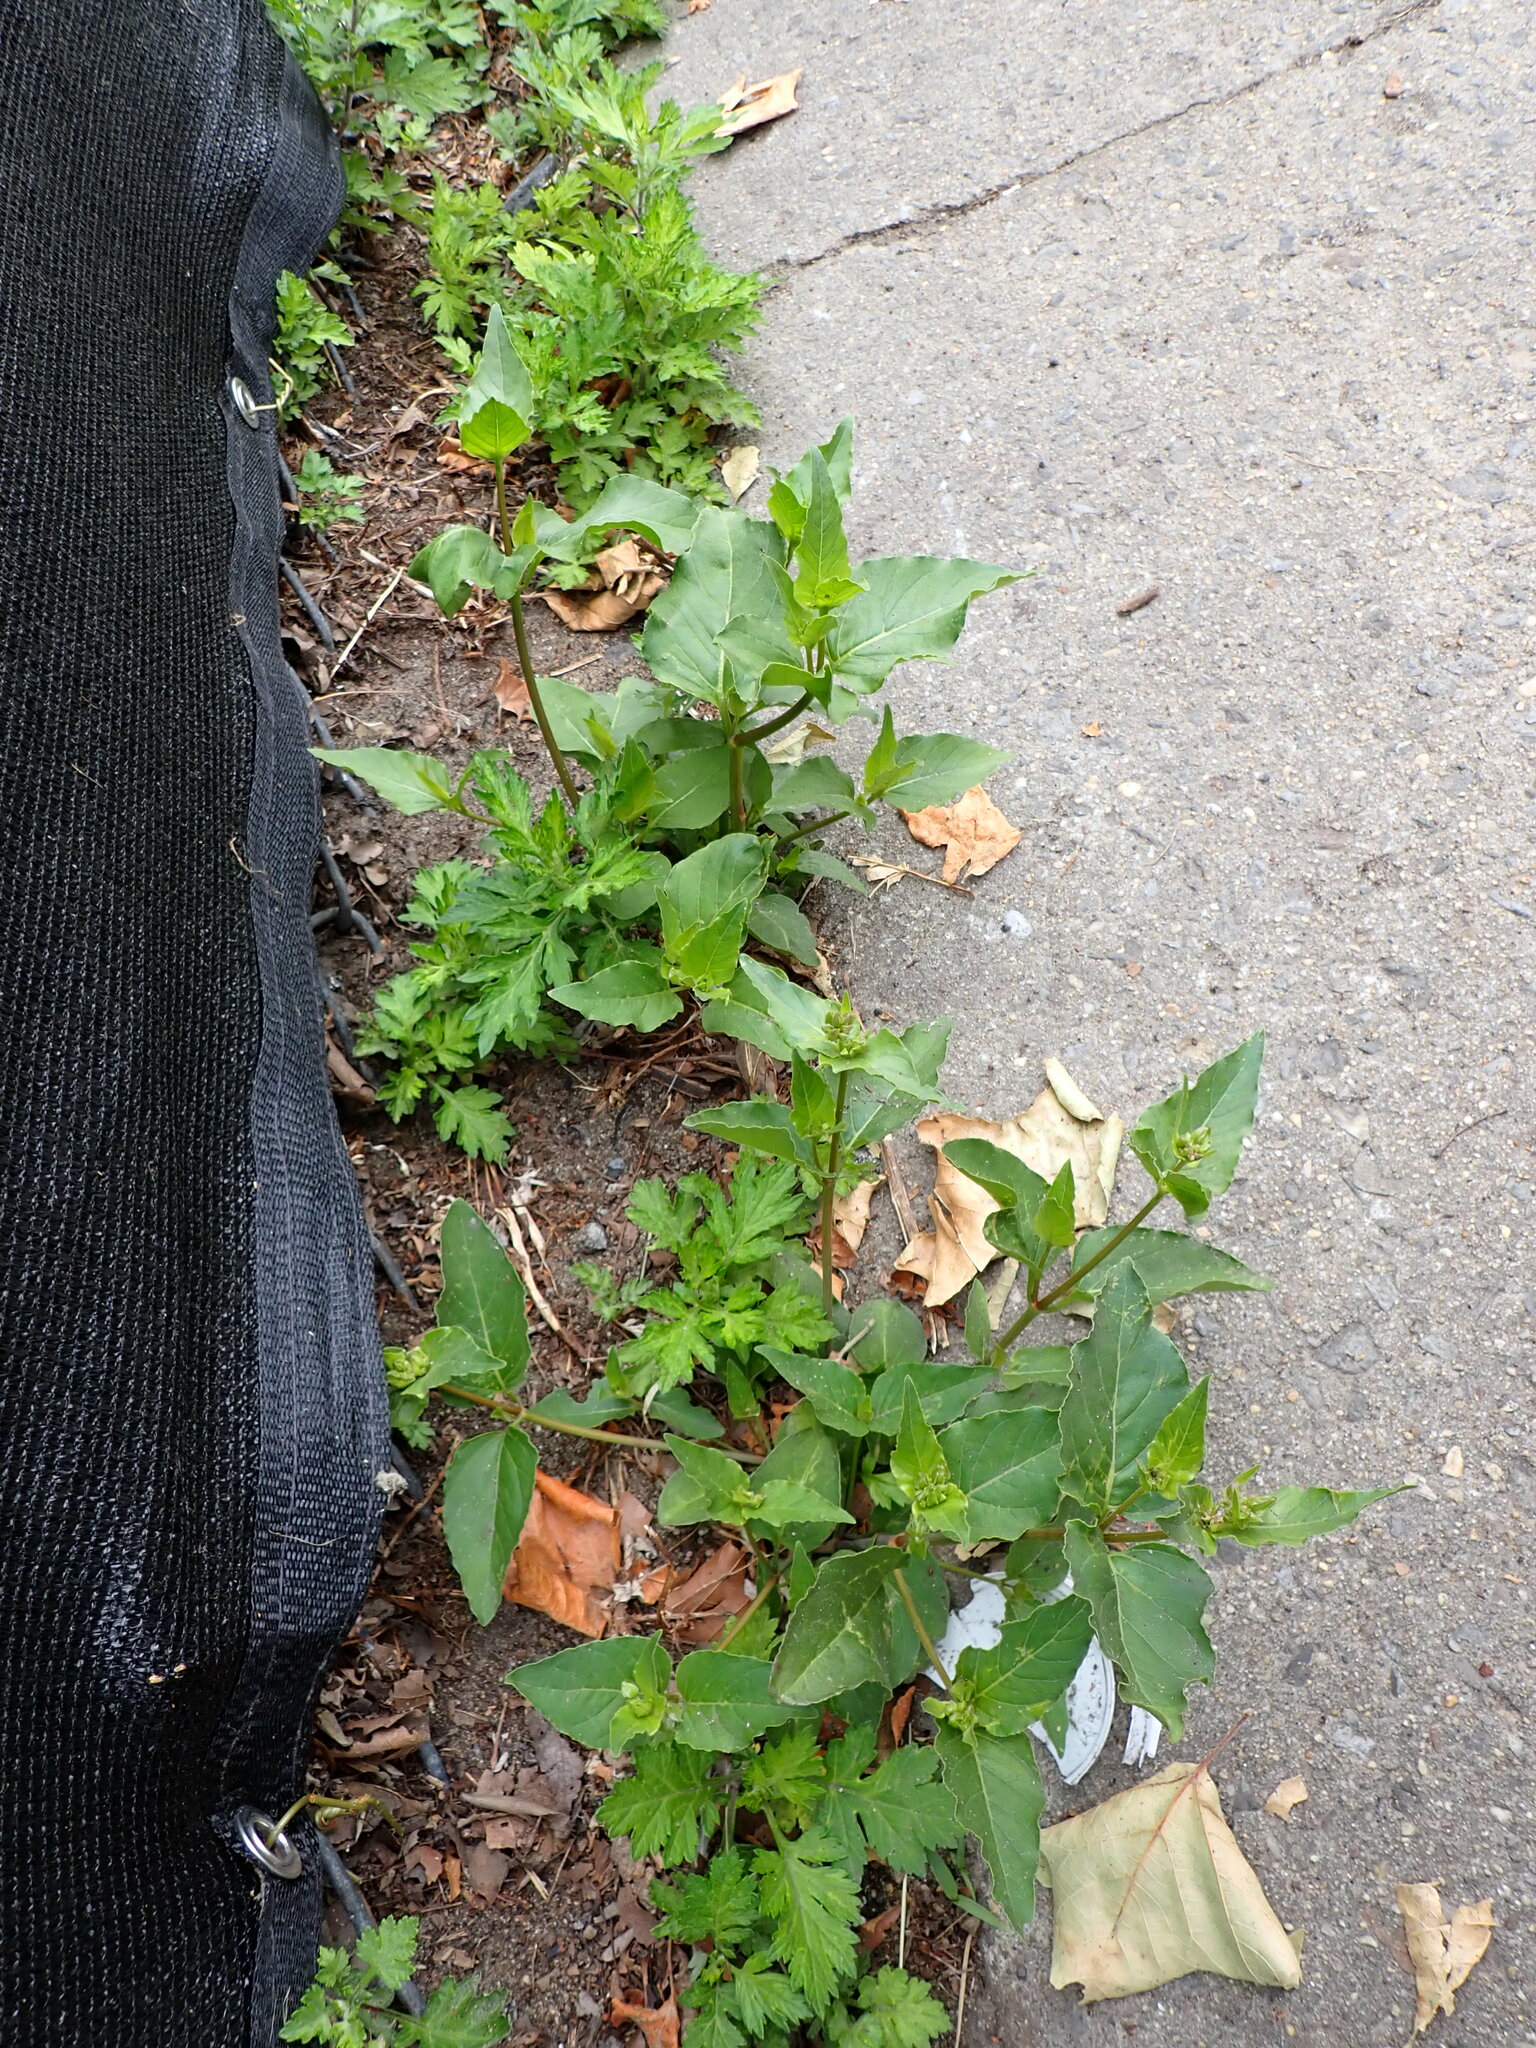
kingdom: Plantae
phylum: Tracheophyta
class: Magnoliopsida
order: Caryophyllales
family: Nyctaginaceae
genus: Mirabilis
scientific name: Mirabilis nyctaginea
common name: Umbrella wort
